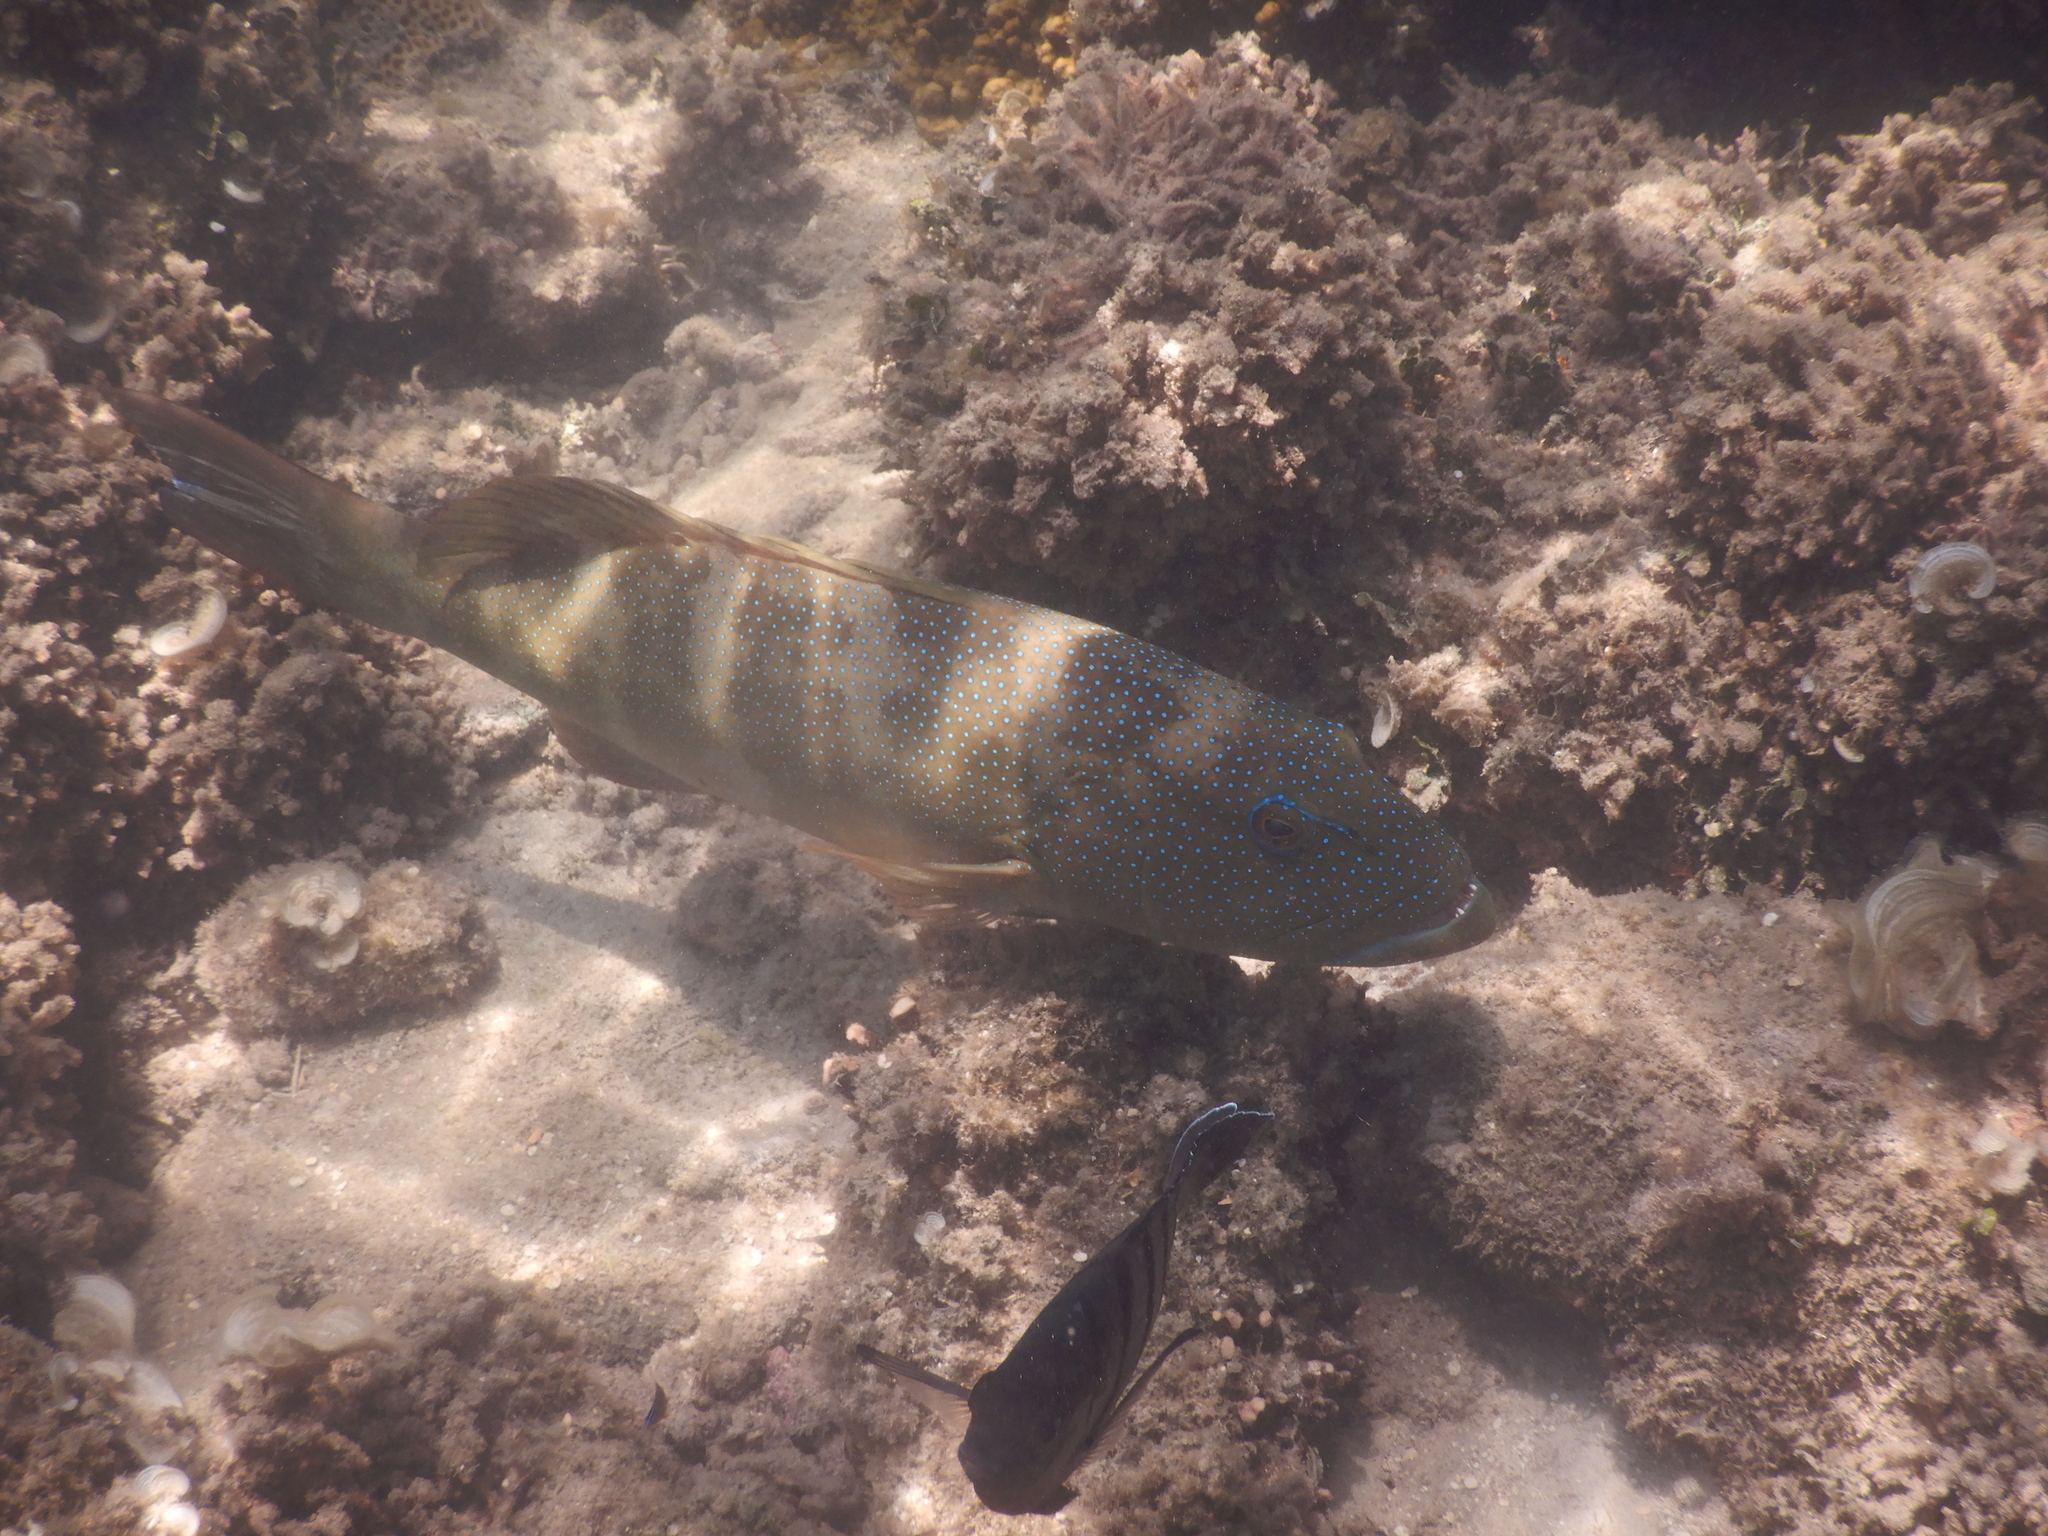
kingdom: Animalia
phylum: Chordata
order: Perciformes
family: Serranidae
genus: Plectropomus
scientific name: Plectropomus leopardus
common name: Coral trout
